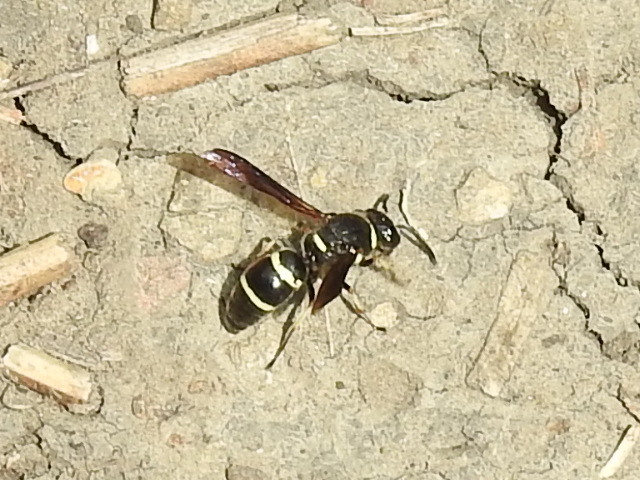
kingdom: Animalia
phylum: Arthropoda
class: Insecta
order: Hymenoptera
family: Eumenidae
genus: Euodynerus
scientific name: Euodynerus
